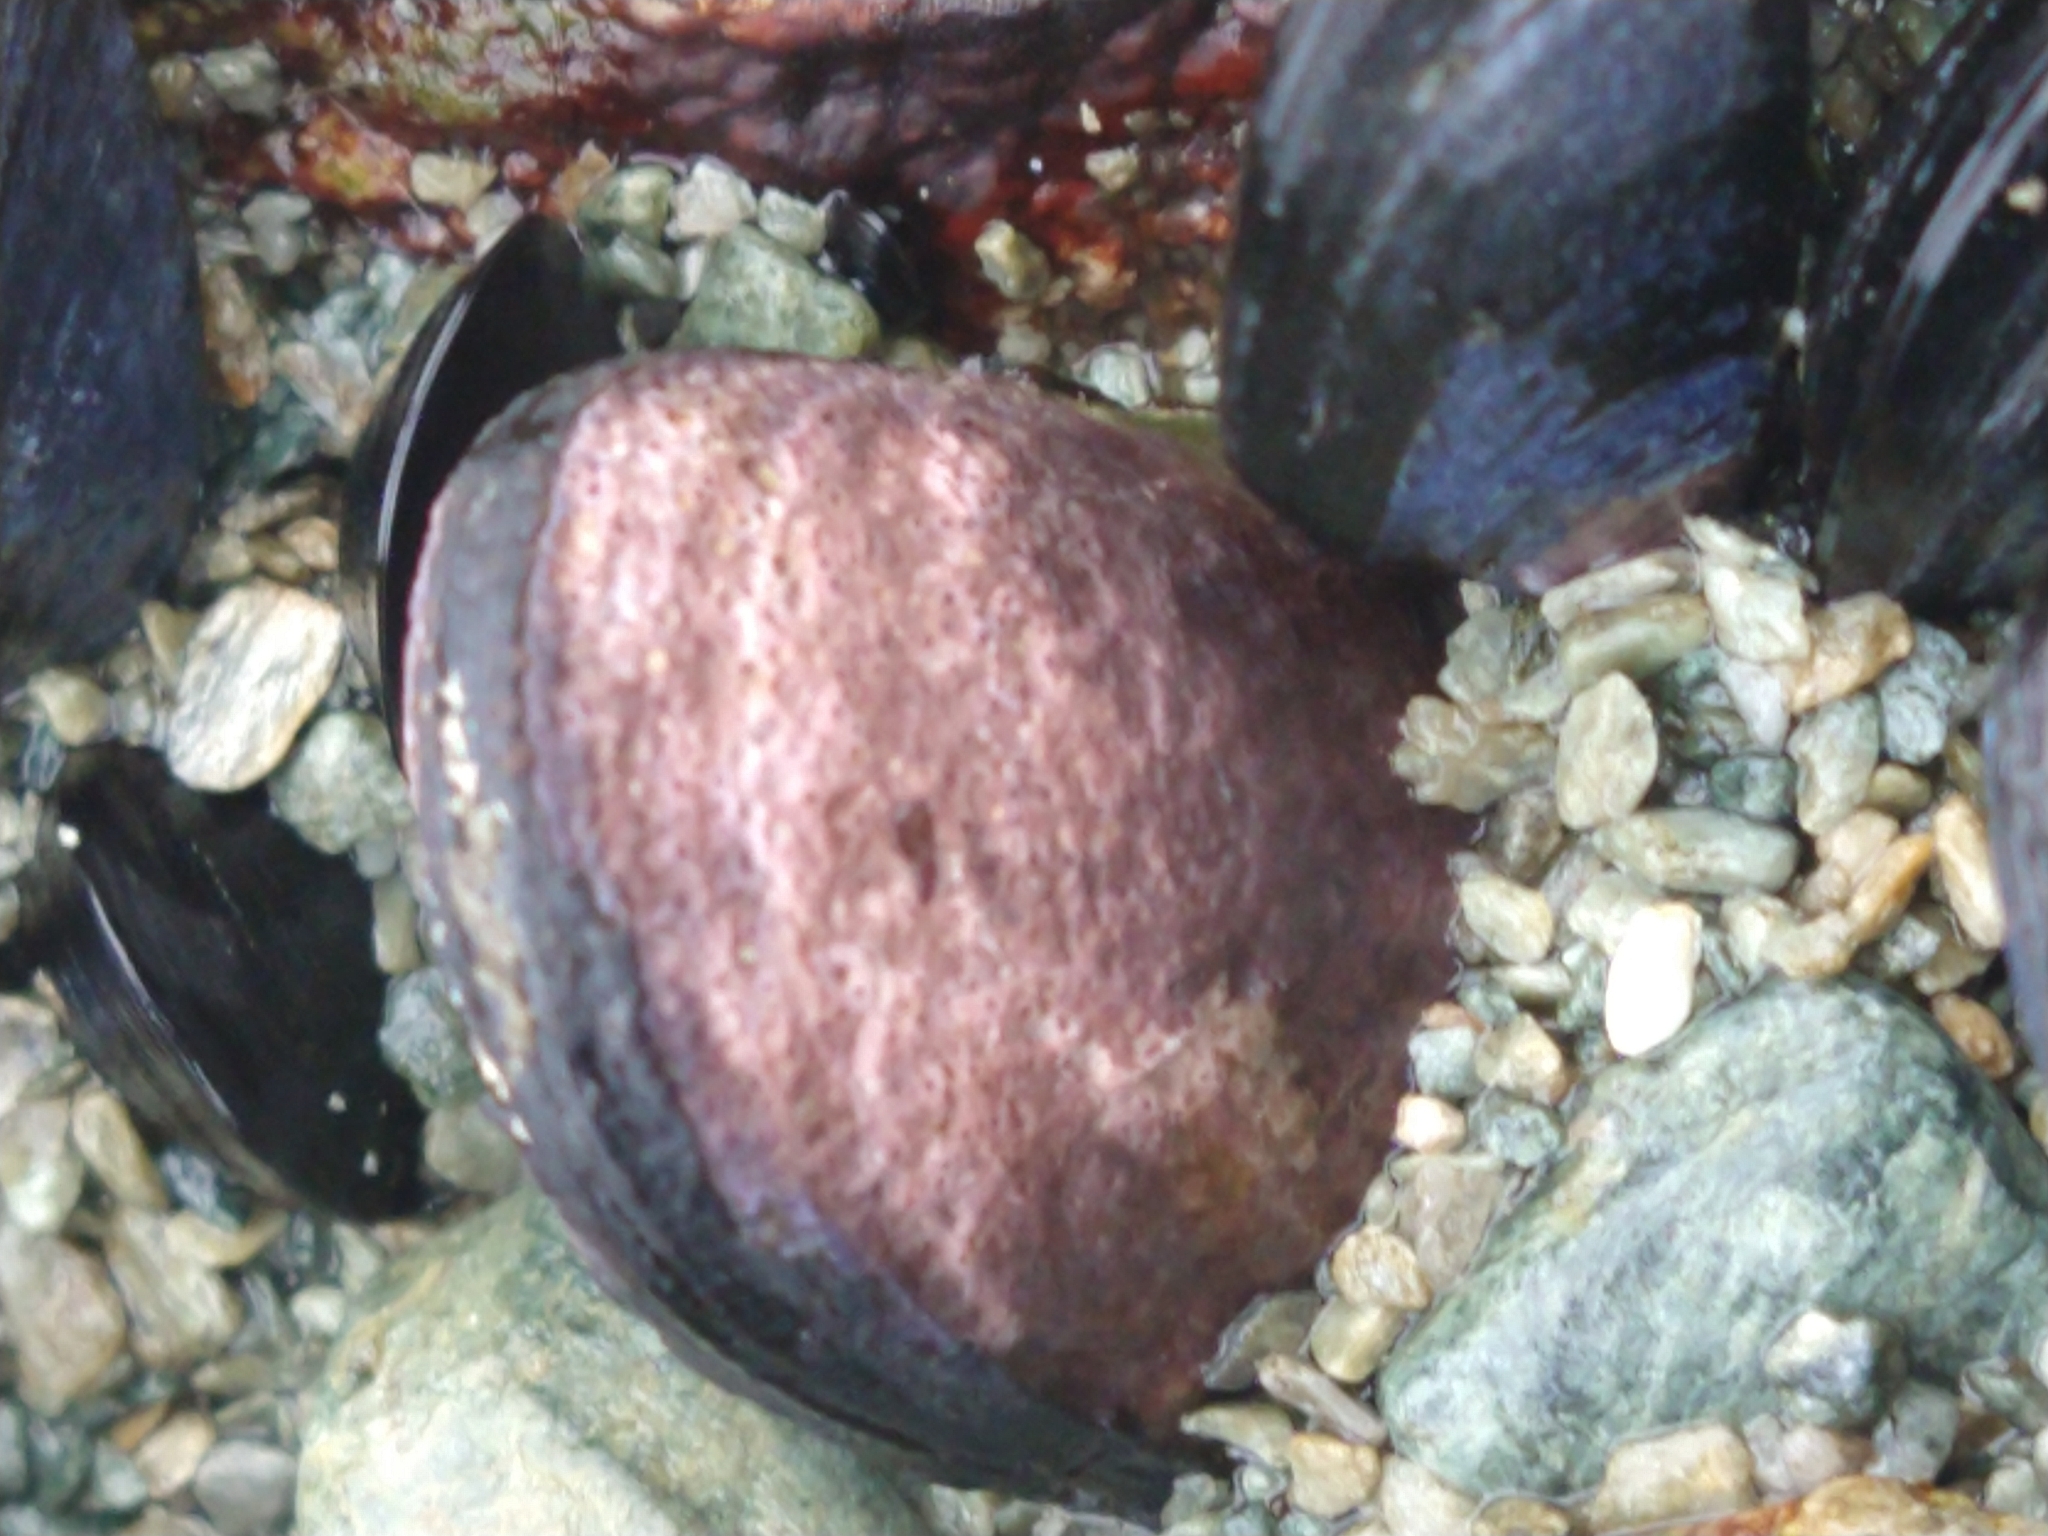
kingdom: Animalia
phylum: Mollusca
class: Bivalvia
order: Mytilida
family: Mytilidae
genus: Perumytilus
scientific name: Perumytilus purpuratus
